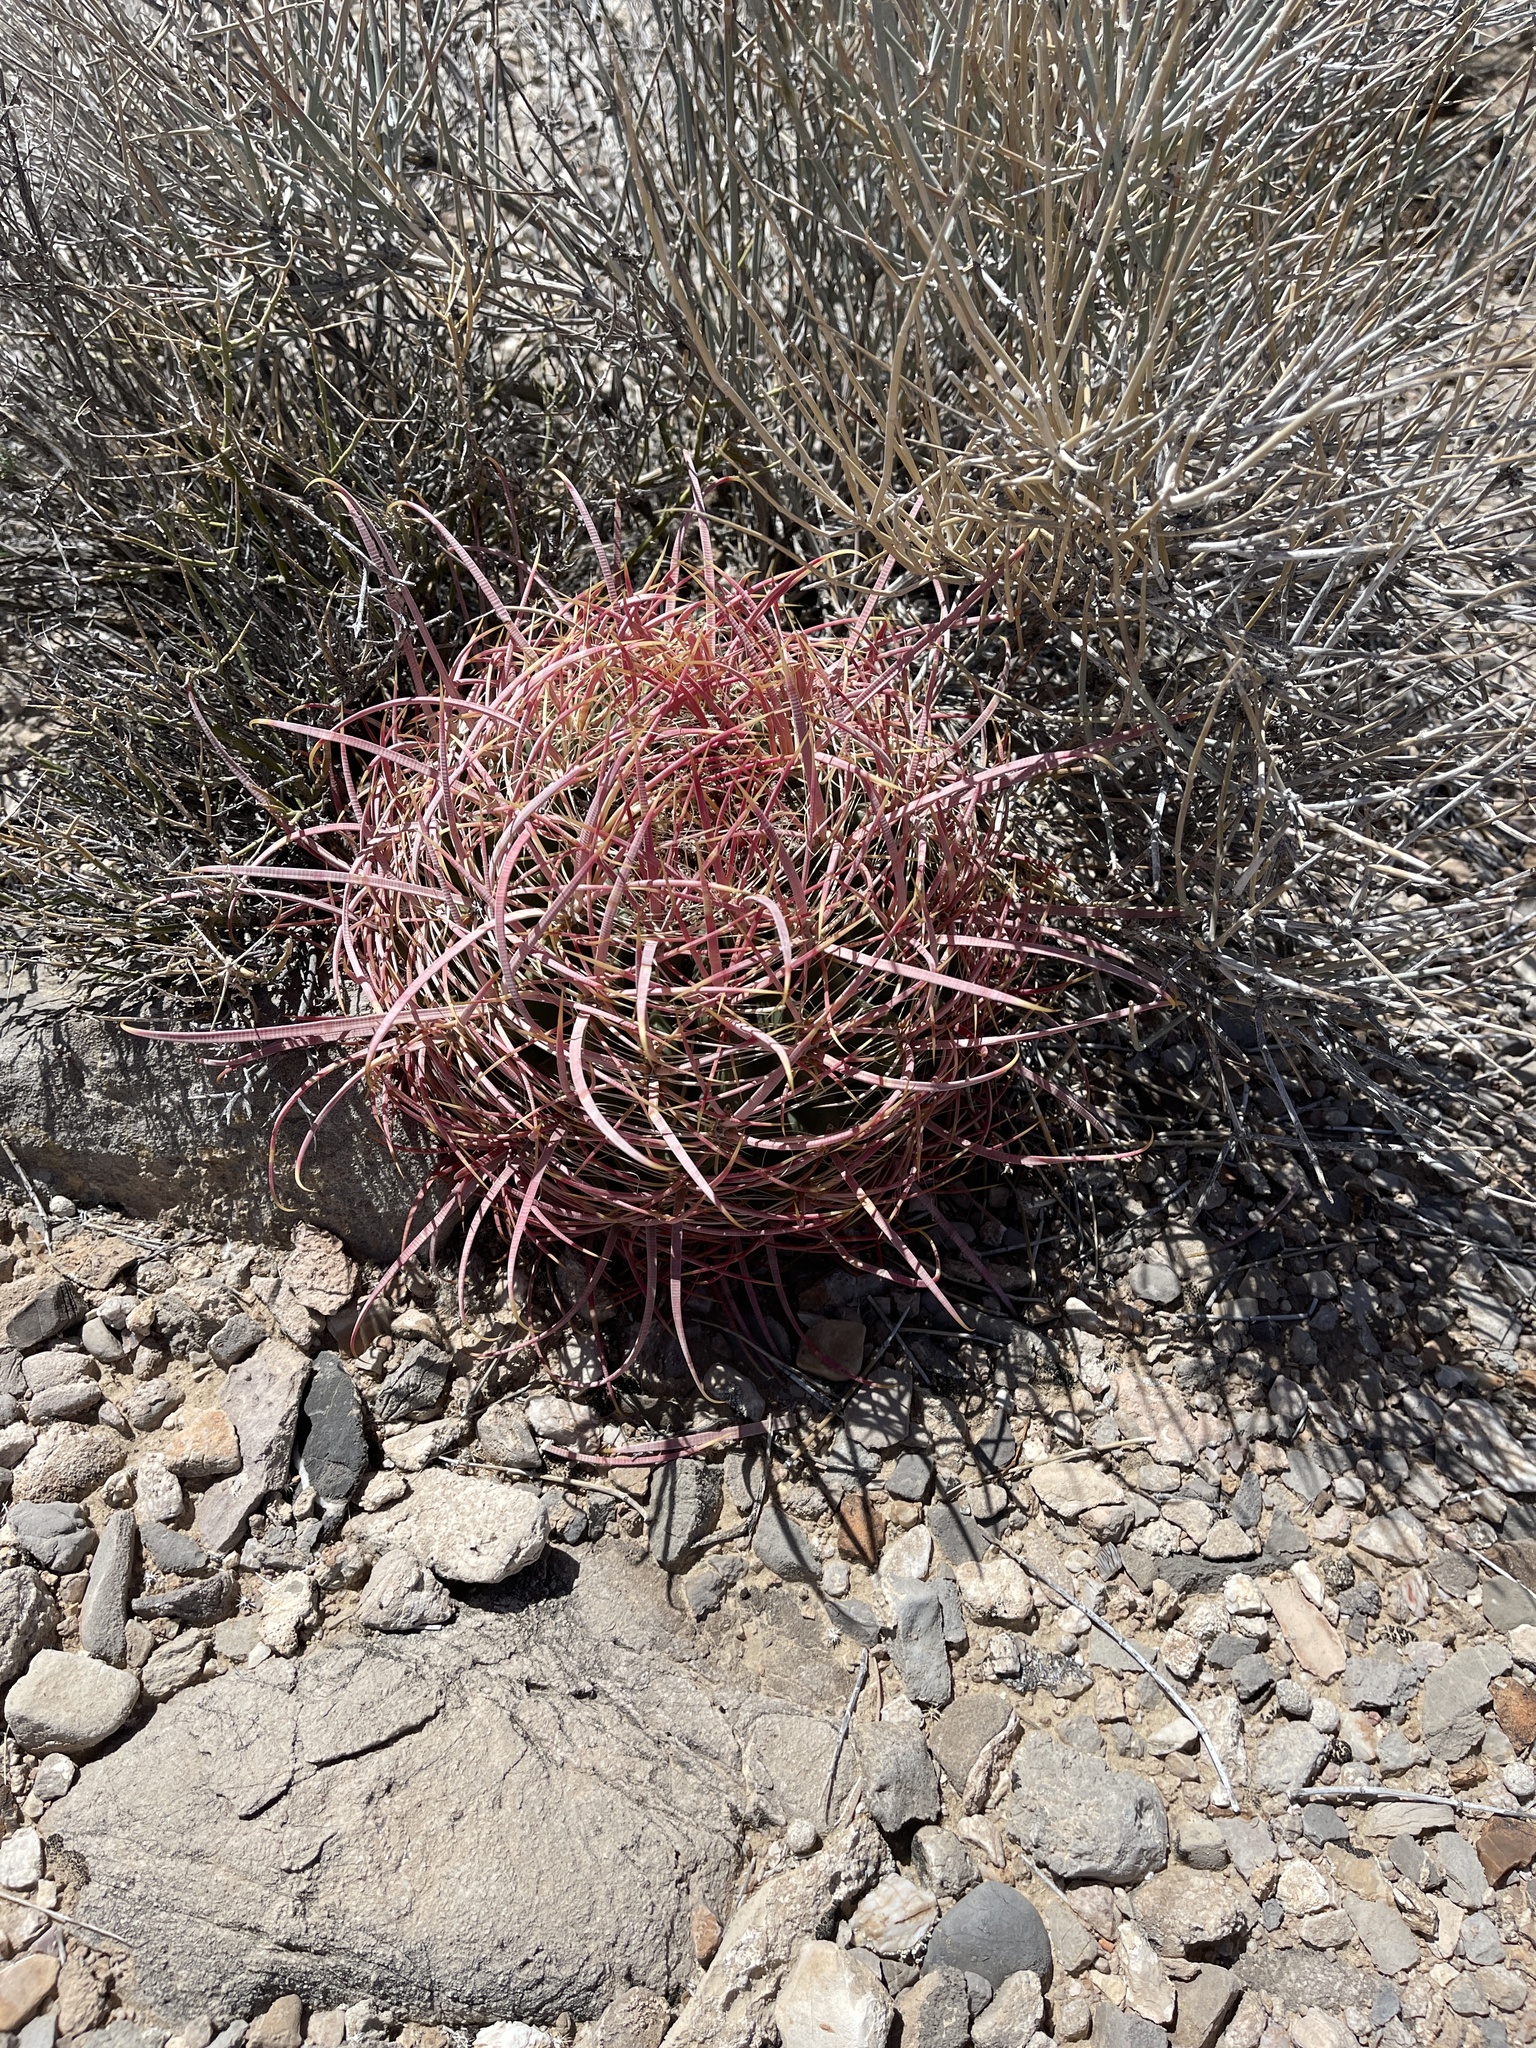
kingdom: Plantae
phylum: Tracheophyta
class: Magnoliopsida
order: Caryophyllales
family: Cactaceae
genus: Ferocactus
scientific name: Ferocactus cylindraceus
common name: California barrel cactus
